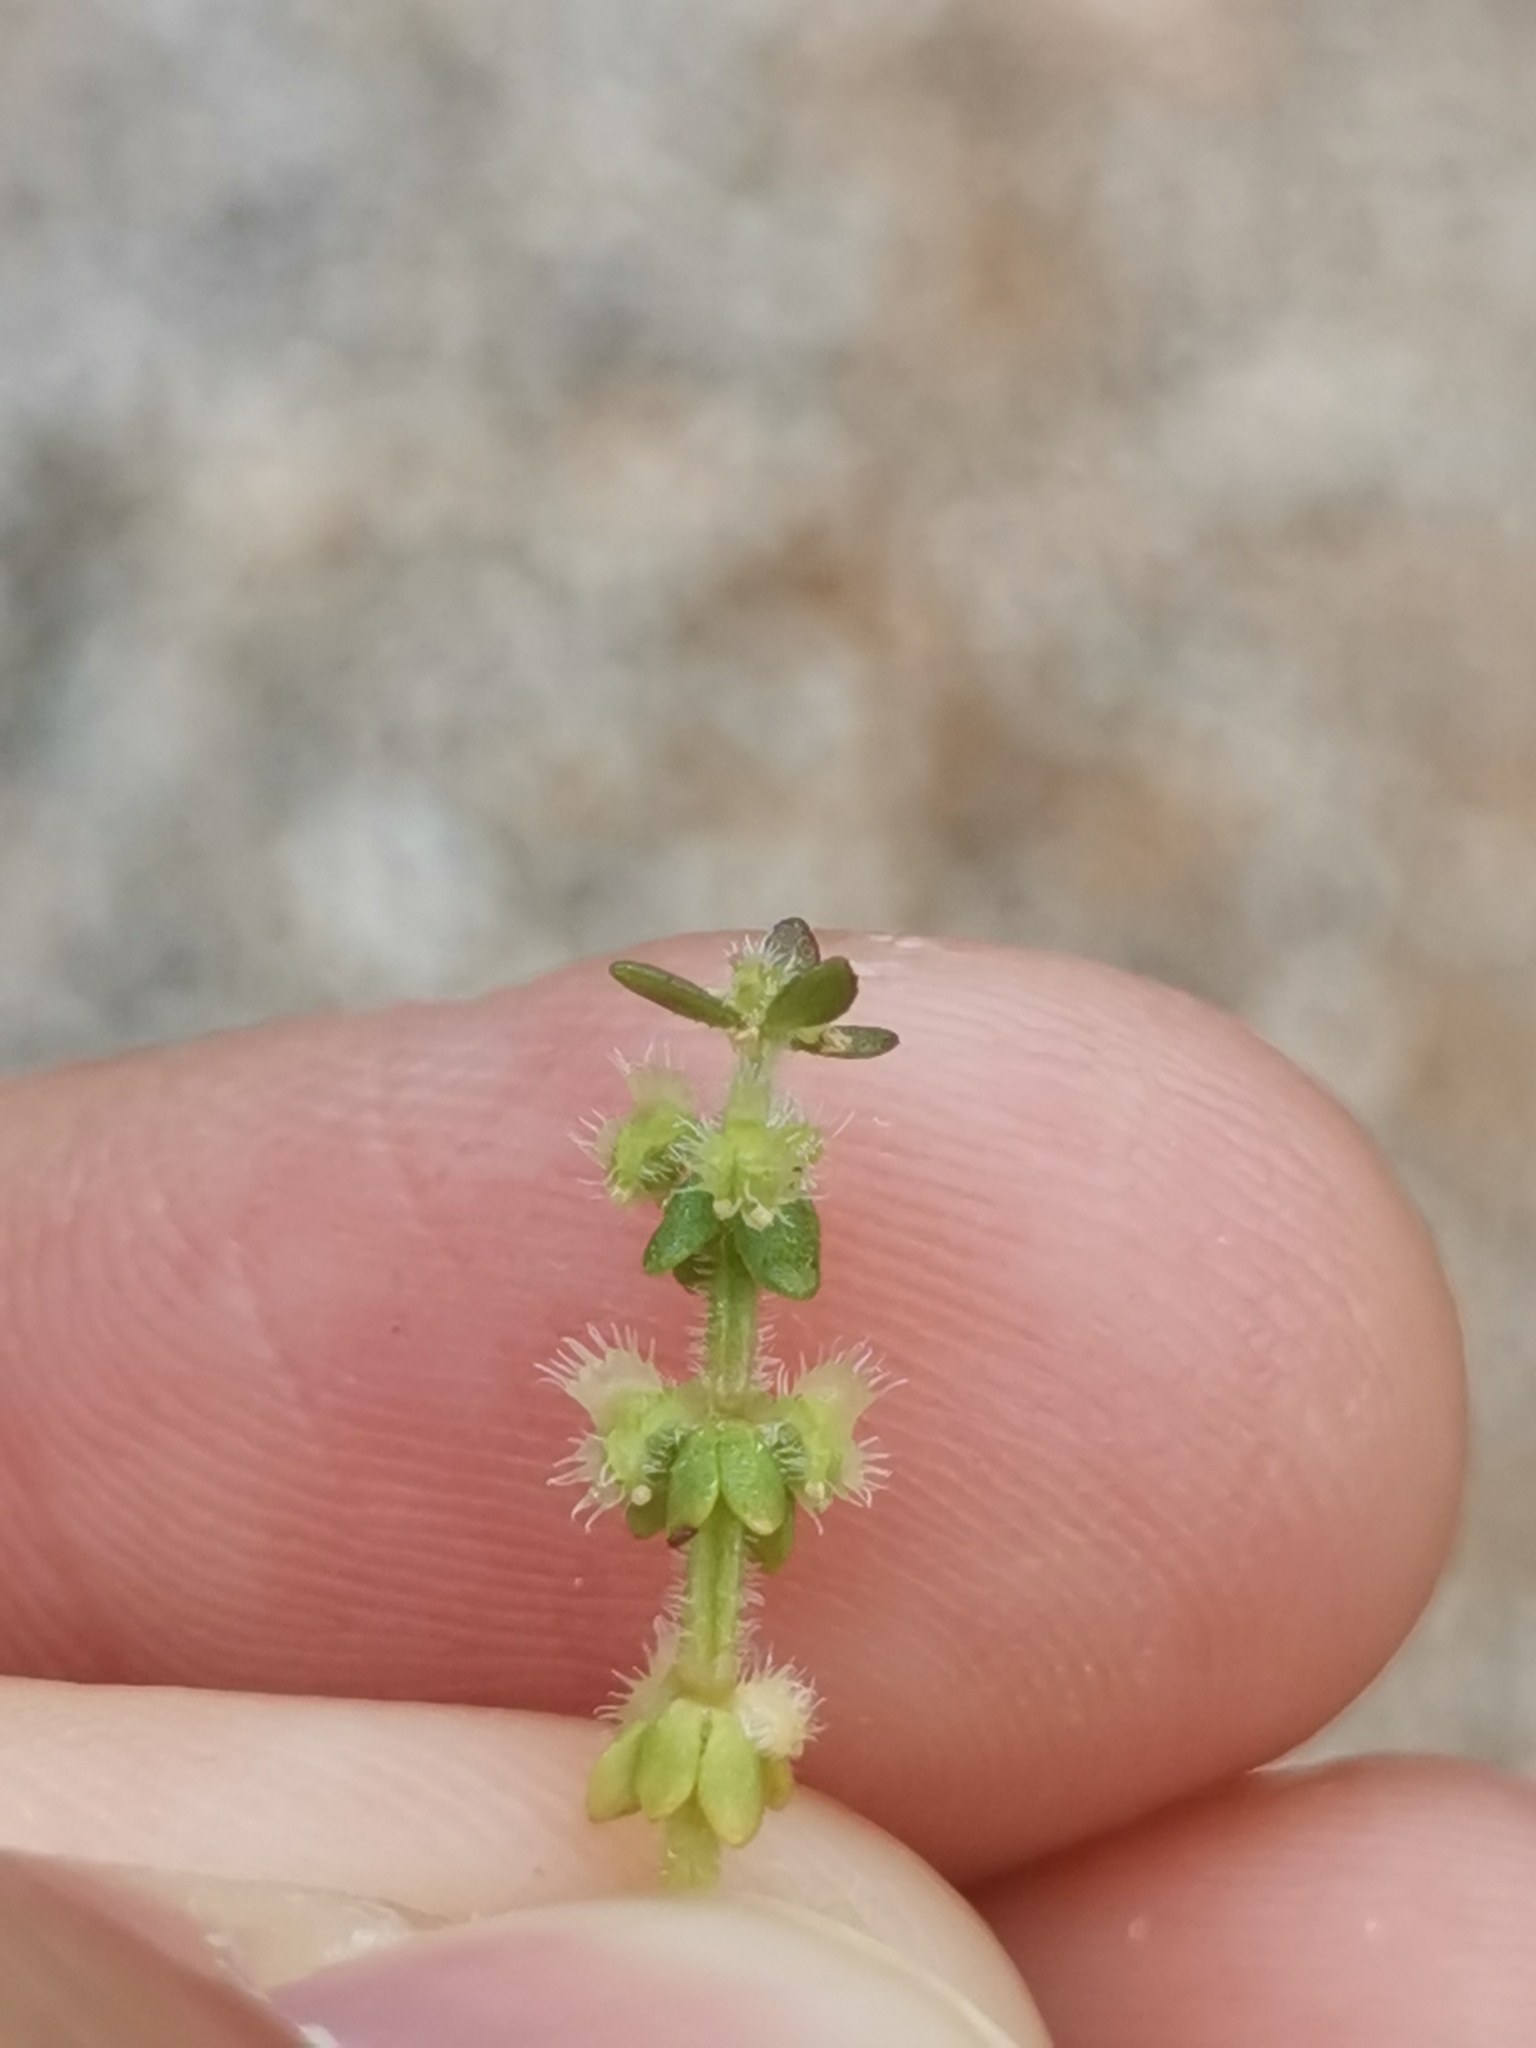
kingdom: Plantae
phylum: Tracheophyta
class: Magnoliopsida
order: Gentianales
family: Rubiaceae
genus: Valantia
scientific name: Valantia muralis
